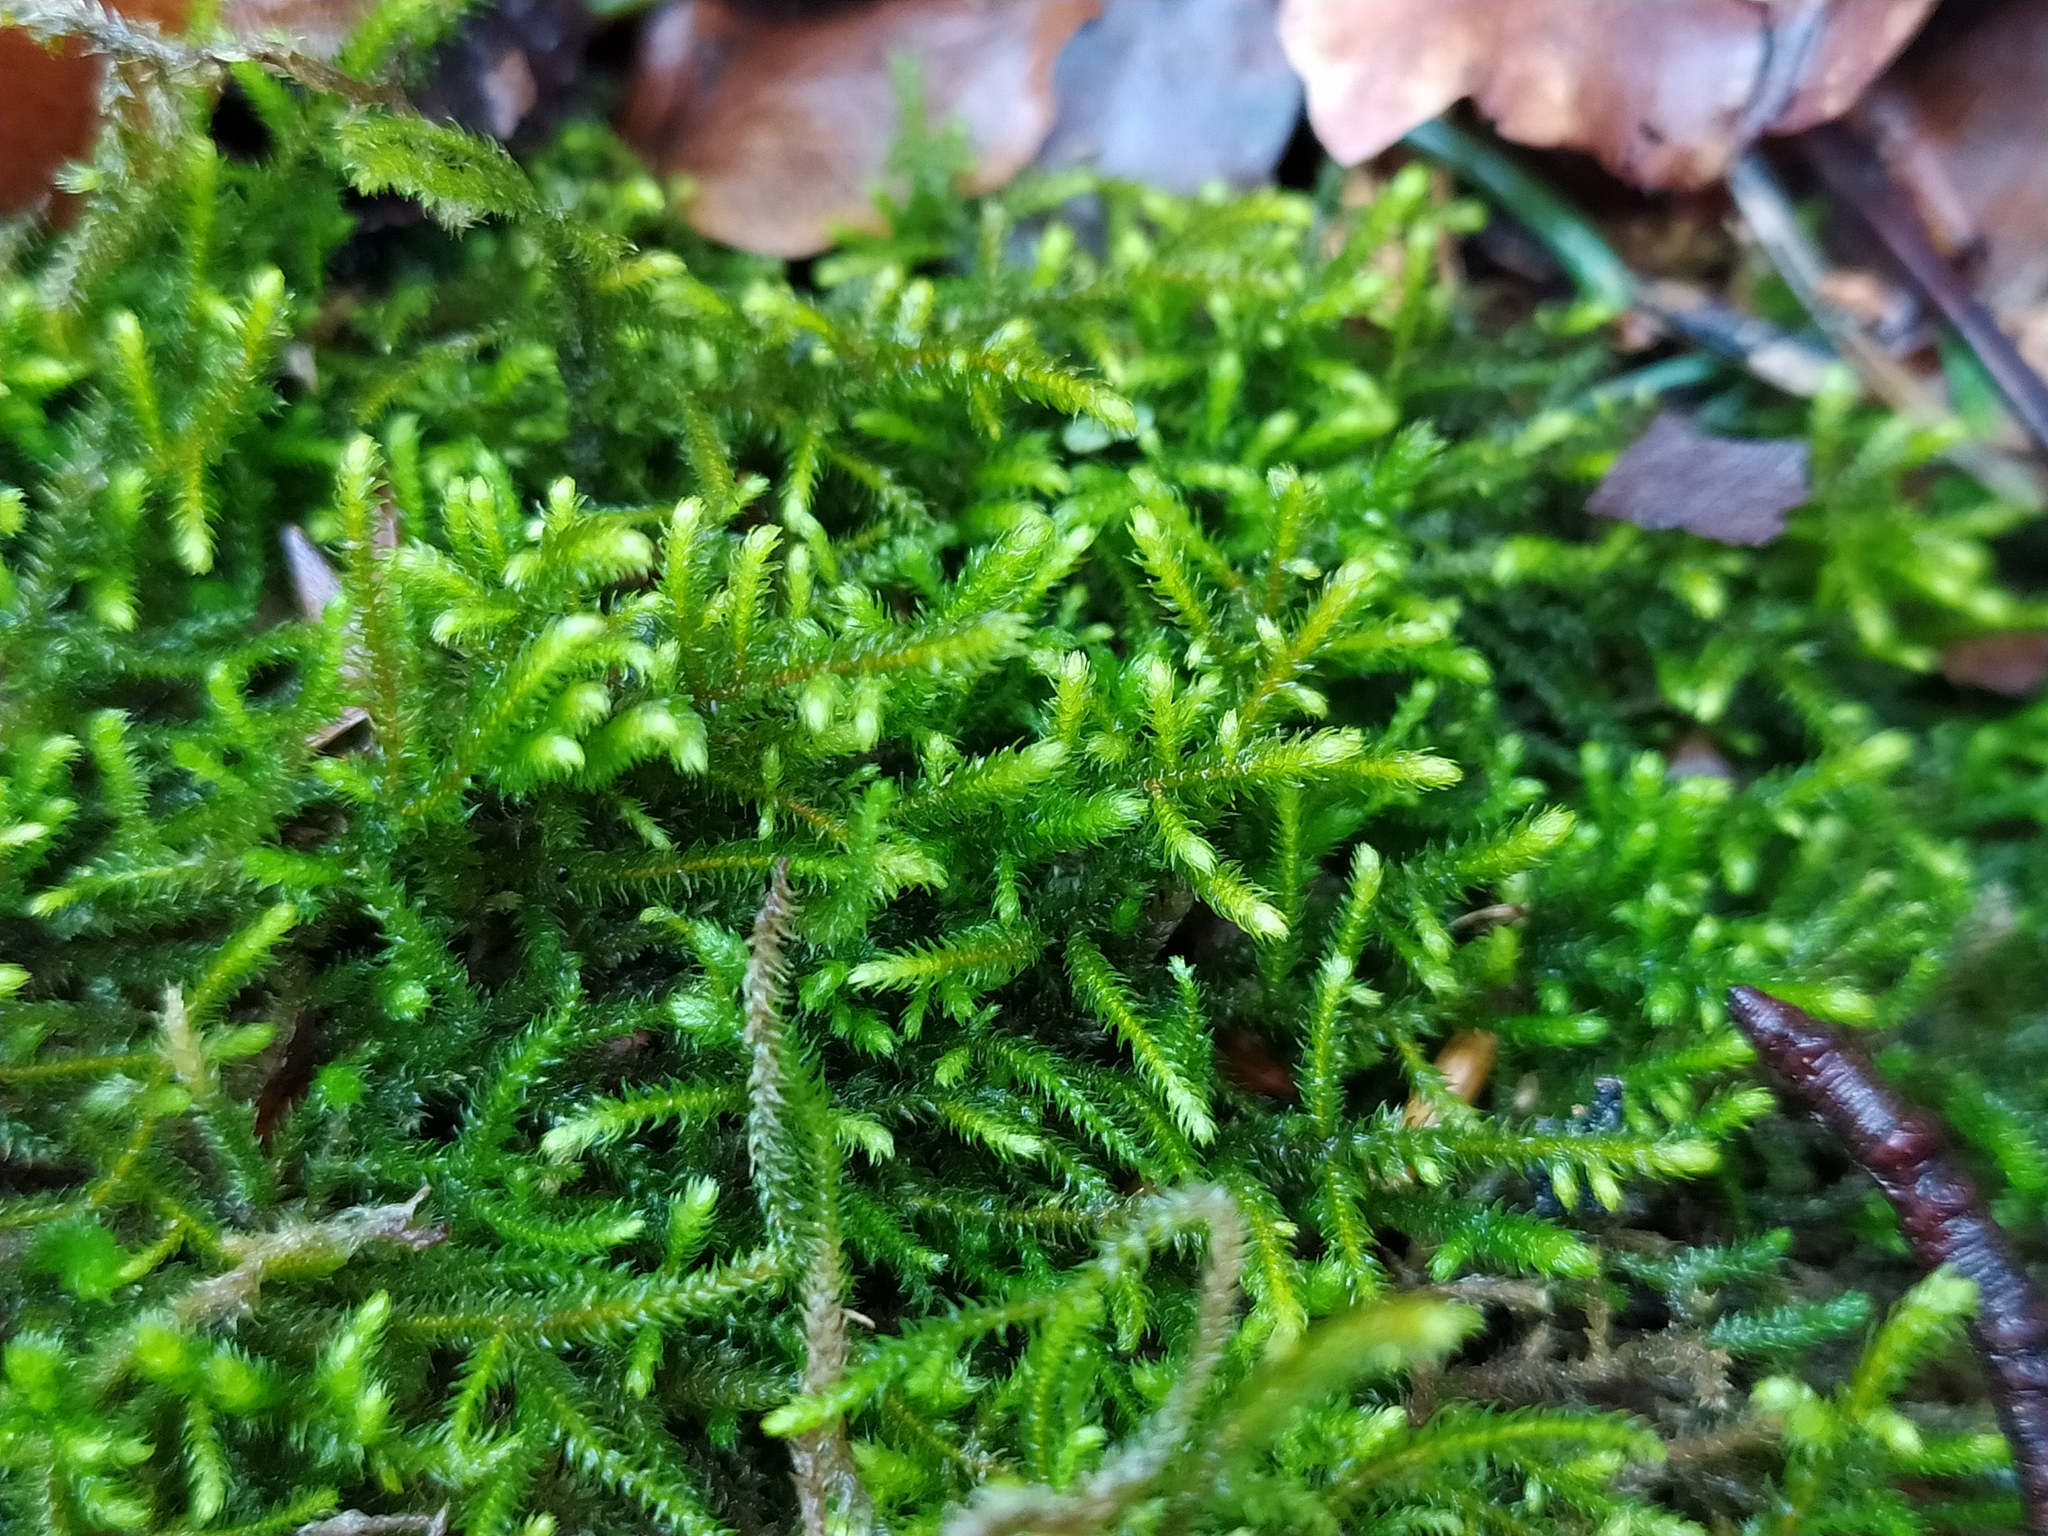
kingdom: Plantae
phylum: Bryophyta
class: Bryopsida
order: Hypnales
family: Pseudoleskeaceae
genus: Lescuraea
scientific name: Lescuraea incurvata
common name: Brown mountain leskea
